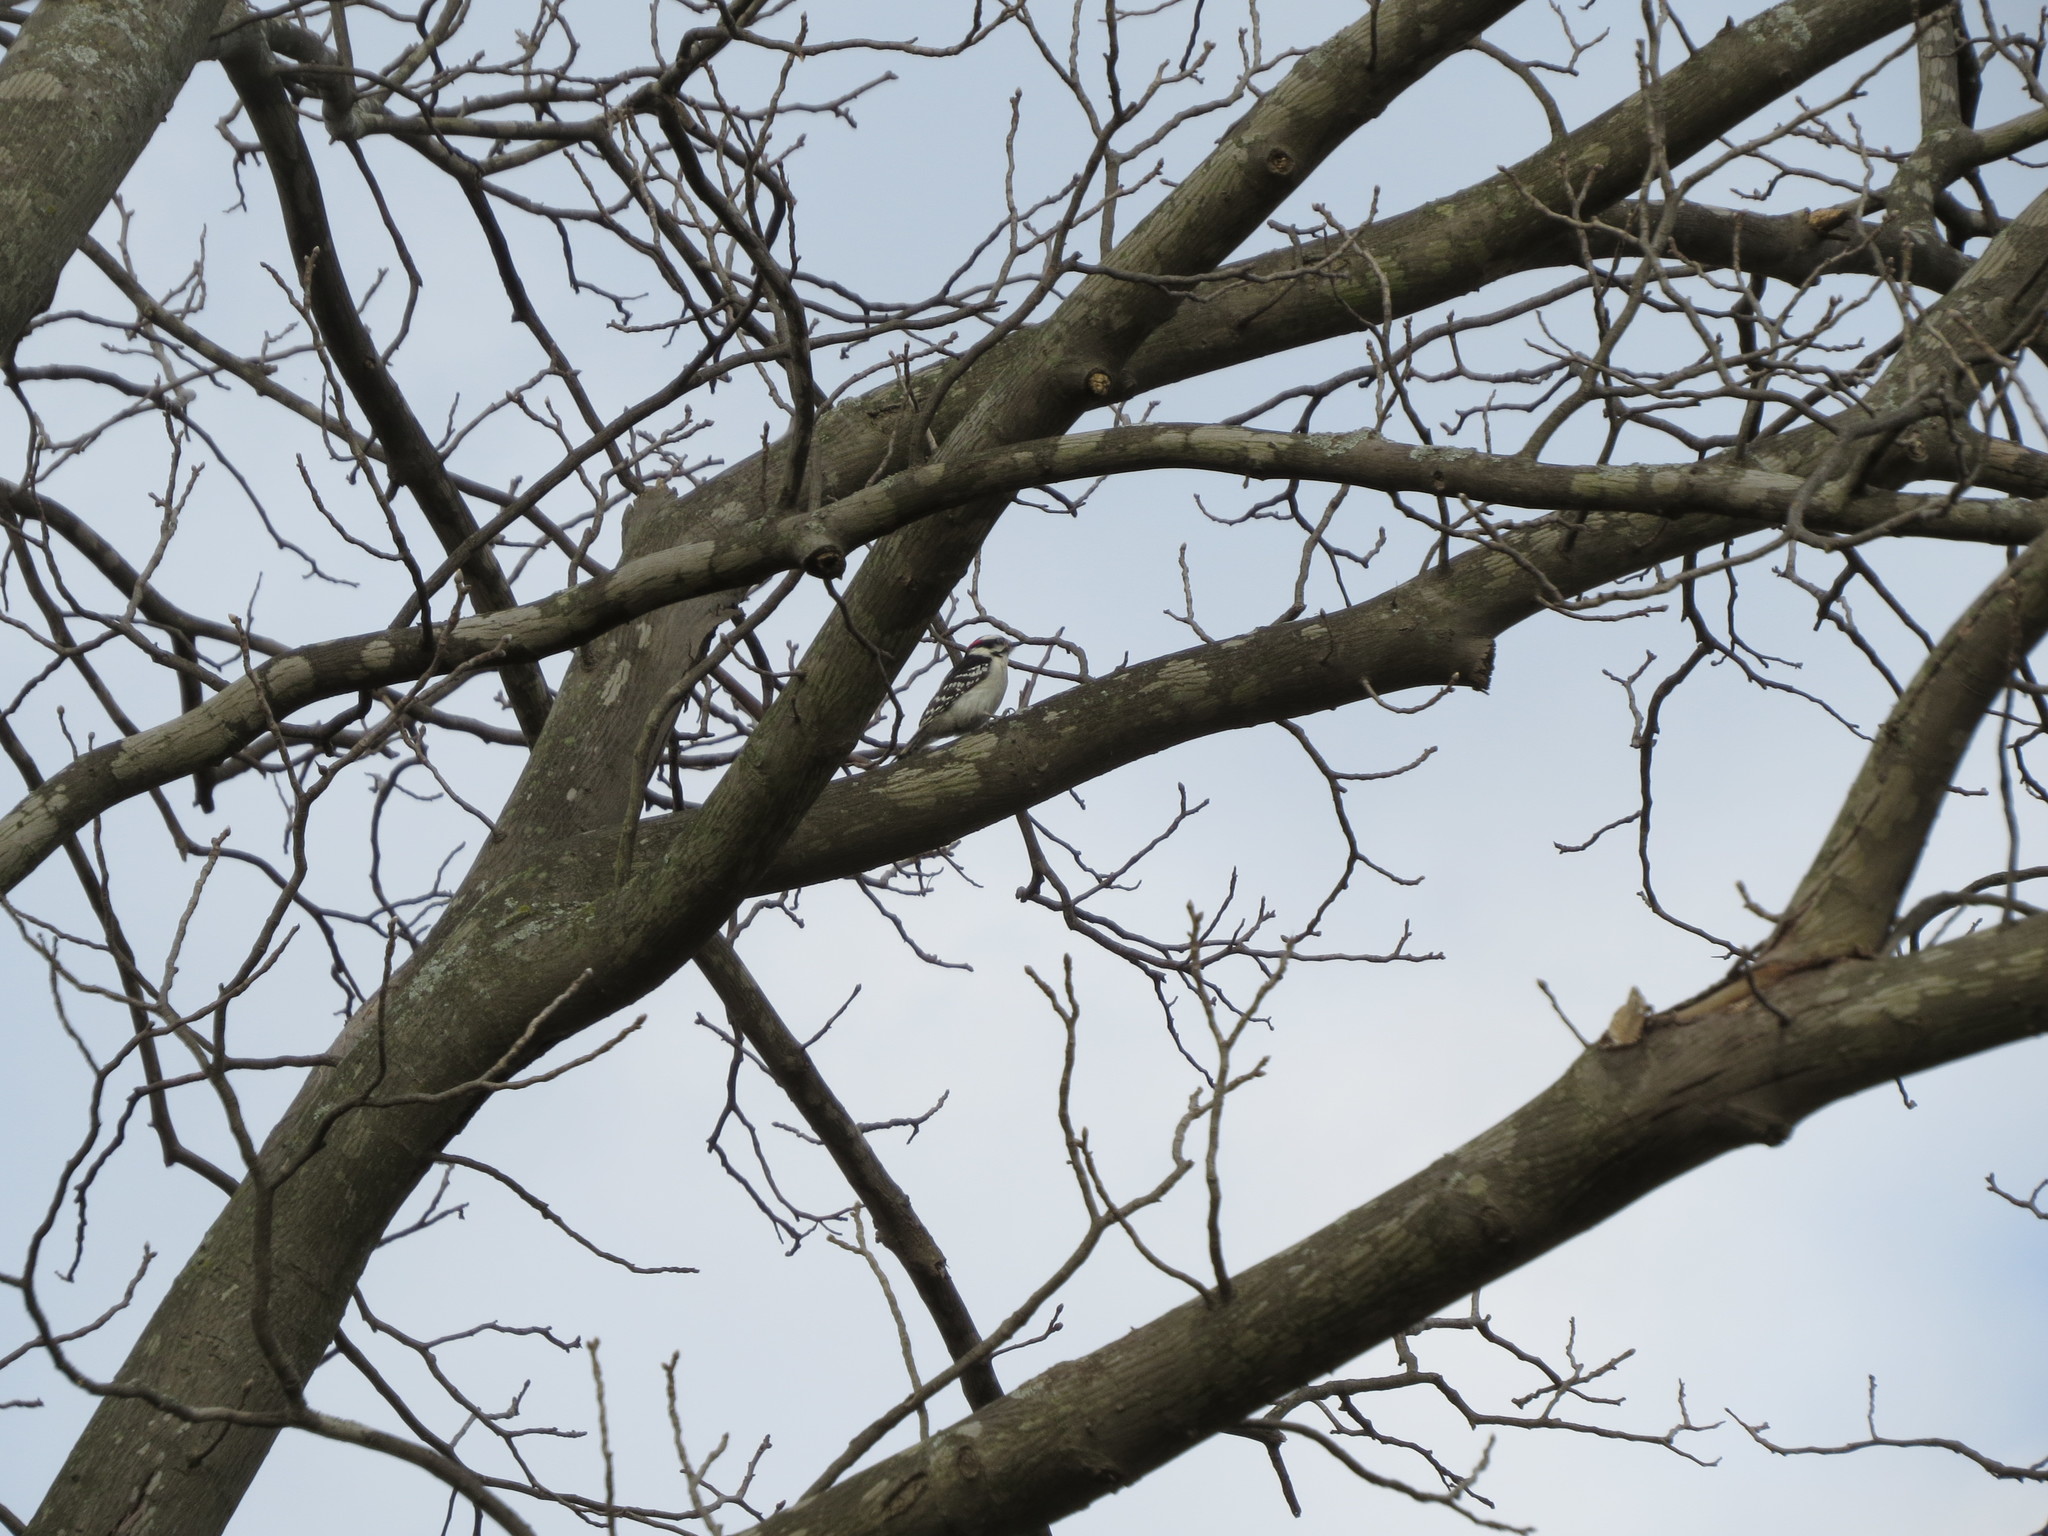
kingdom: Animalia
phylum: Chordata
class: Aves
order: Piciformes
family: Picidae
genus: Dryobates
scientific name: Dryobates pubescens
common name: Downy woodpecker
